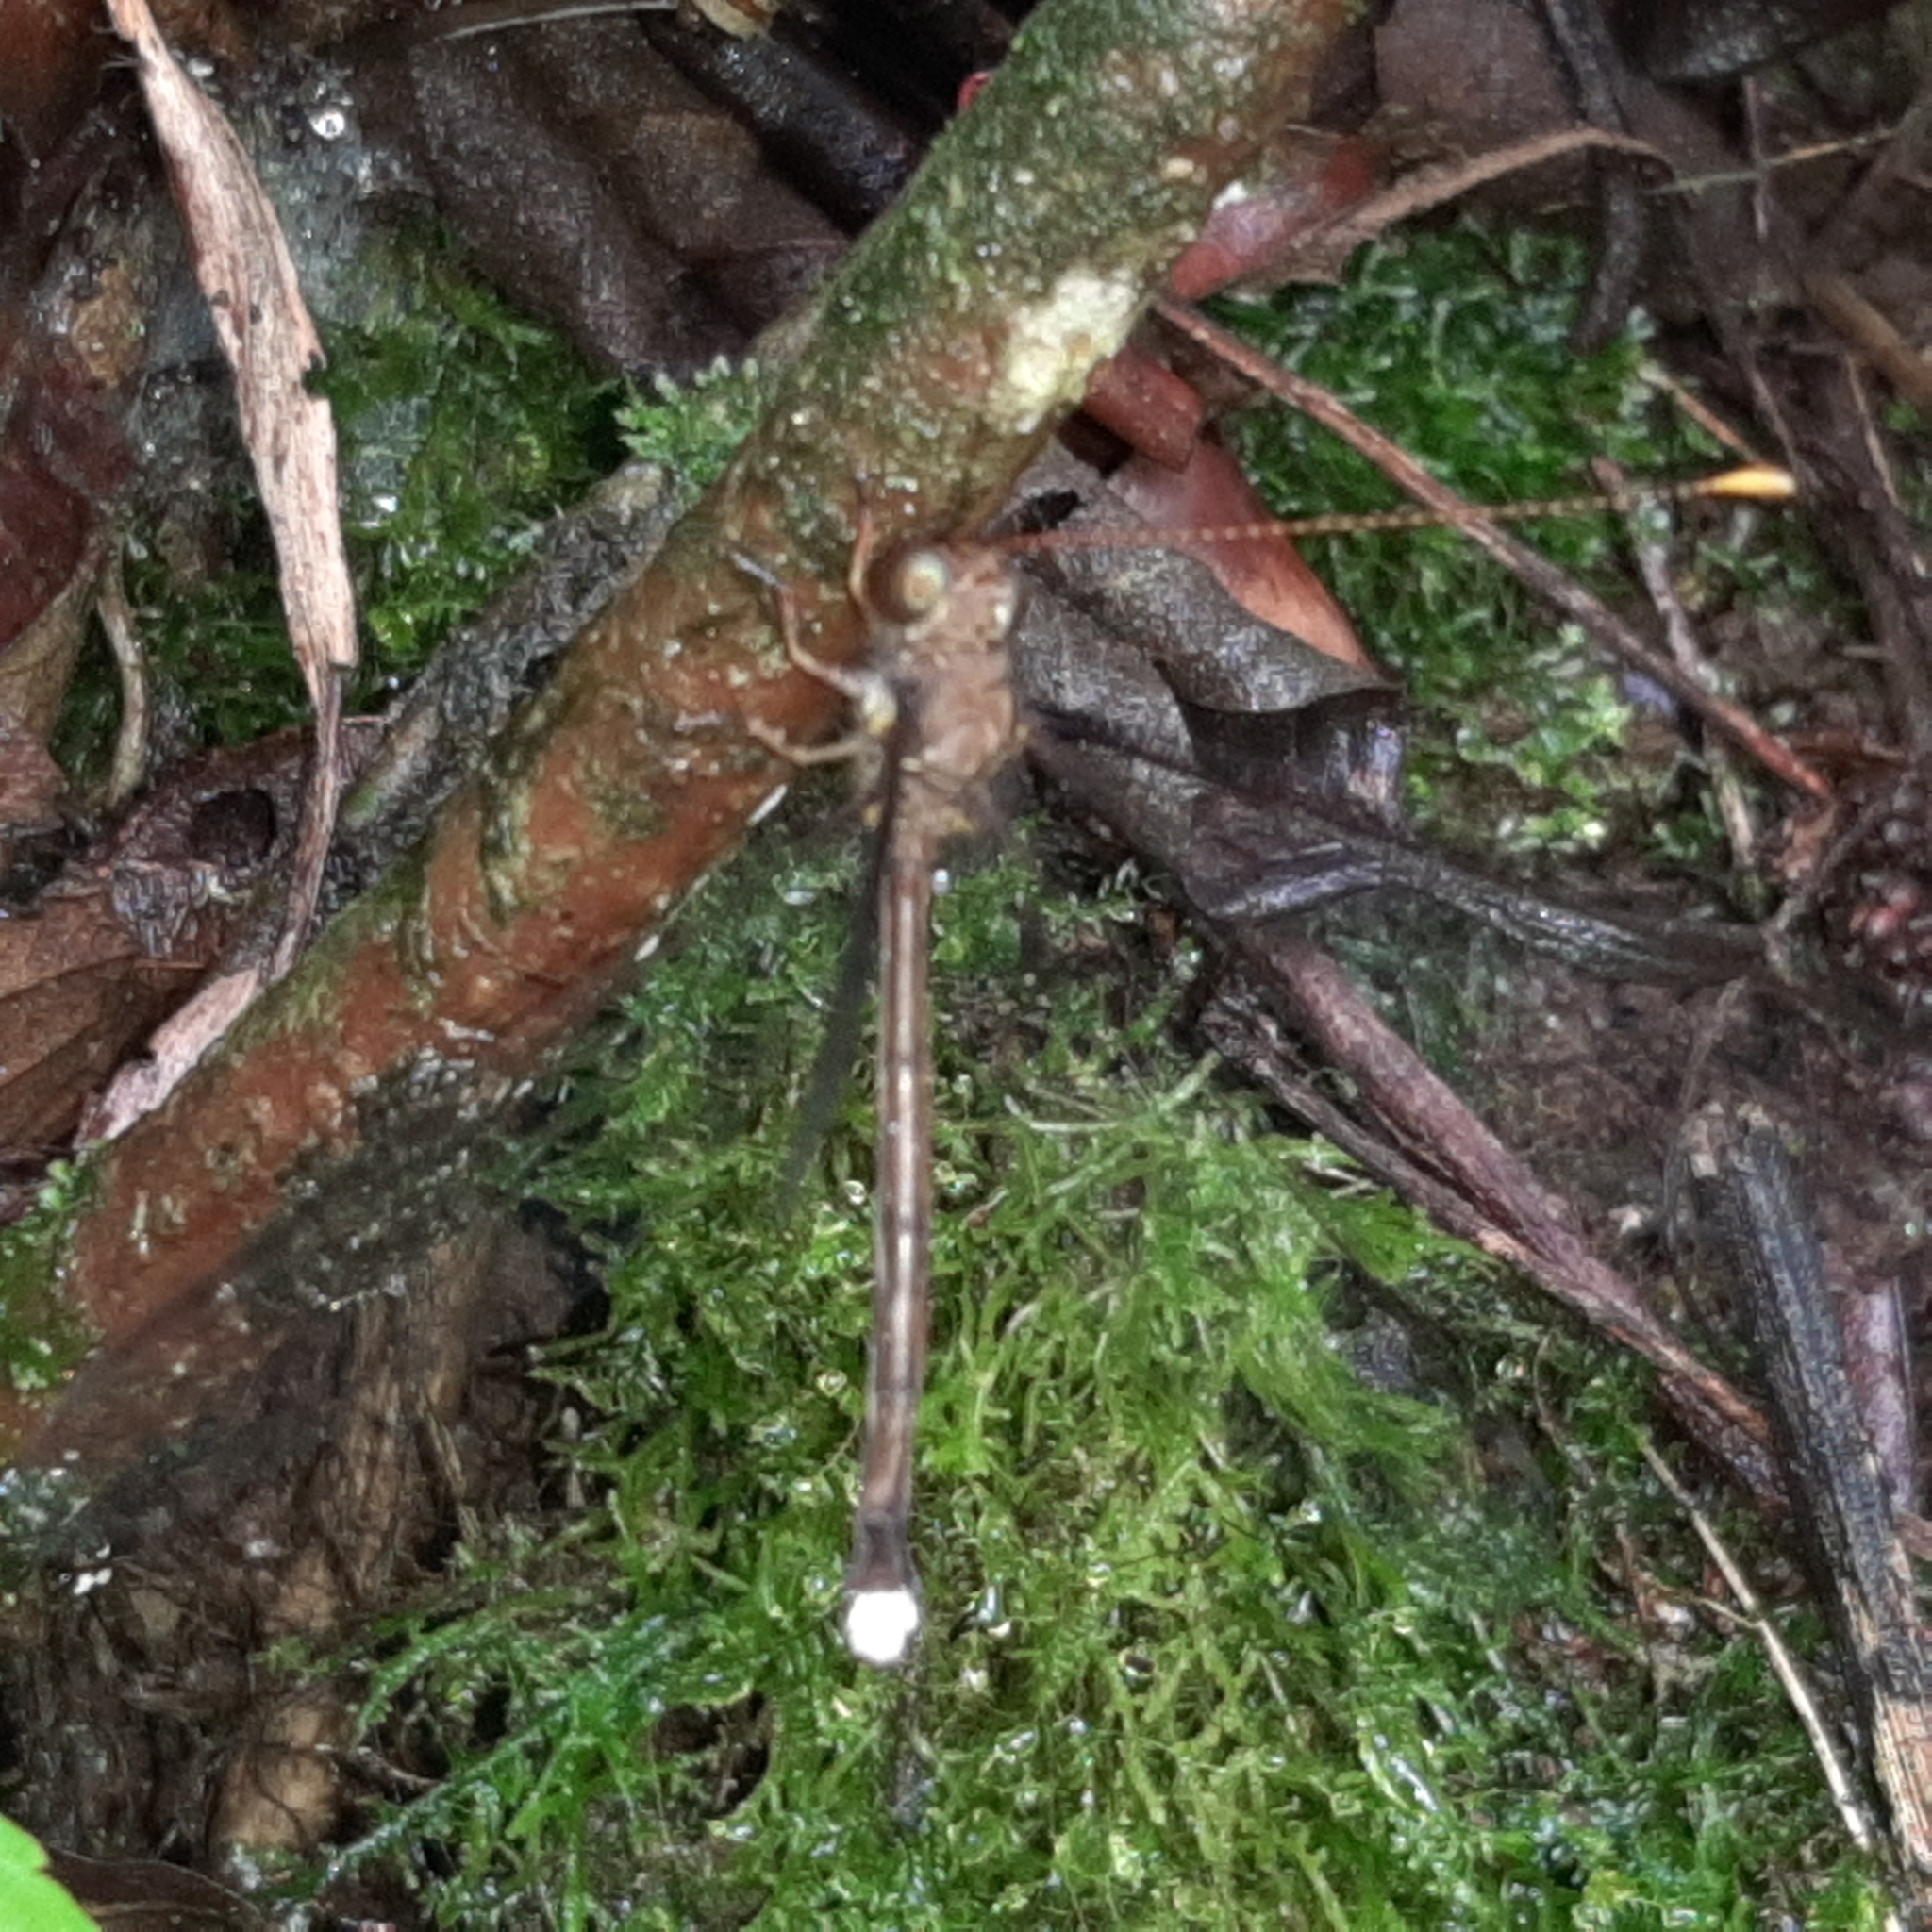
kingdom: Animalia
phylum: Arthropoda
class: Insecta
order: Neuroptera
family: Ascalaphidae
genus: Haploglenius
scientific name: Haploglenius flavicornis
